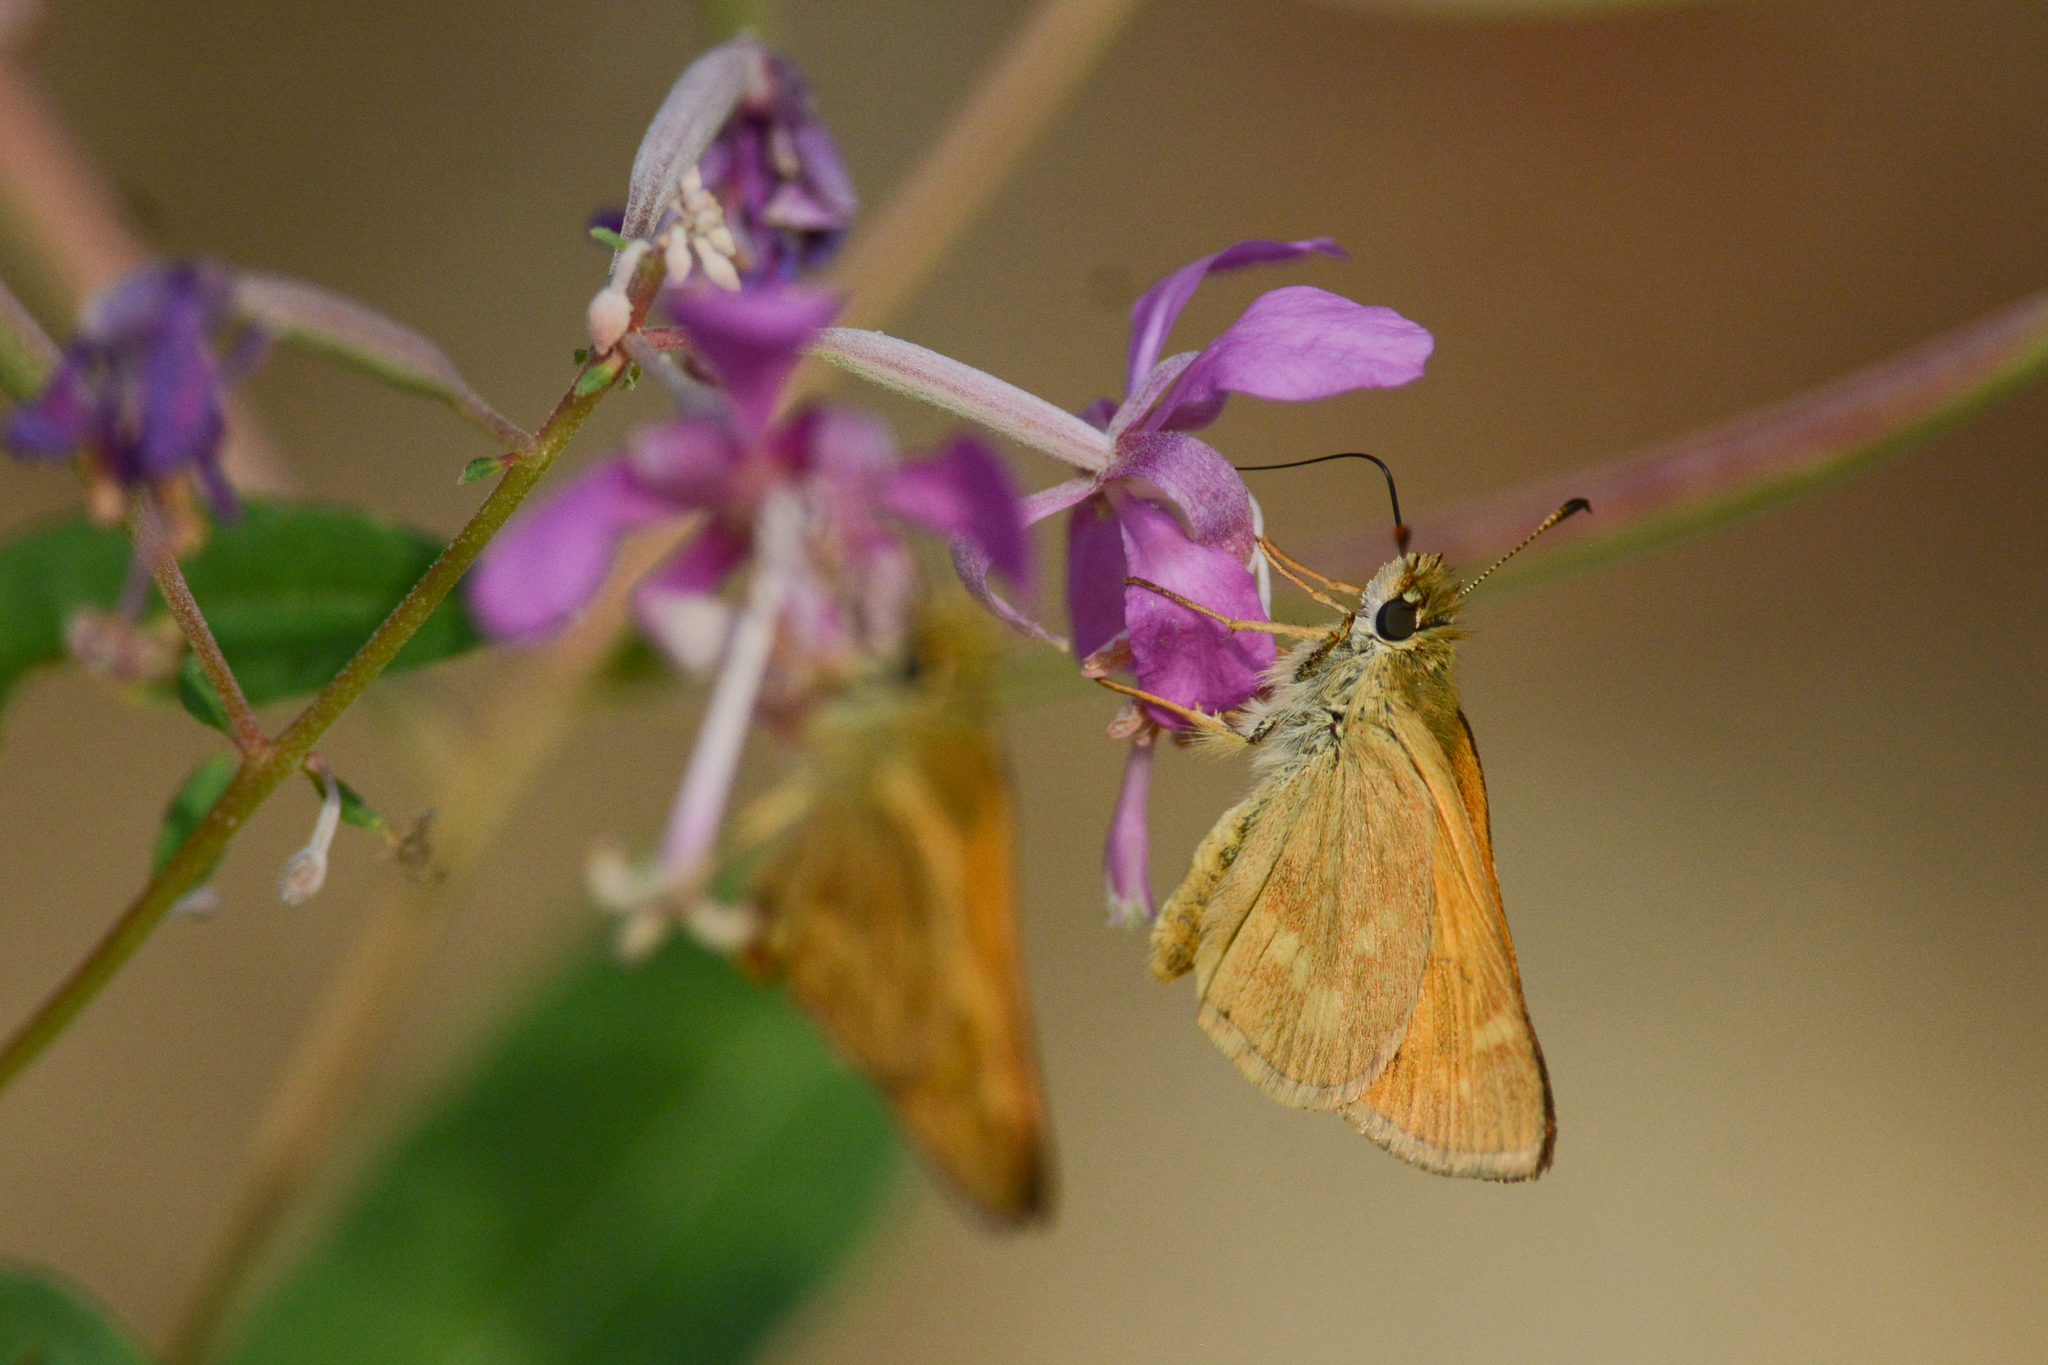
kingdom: Animalia
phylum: Arthropoda
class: Insecta
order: Lepidoptera
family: Hesperiidae
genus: Ochlodes
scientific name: Ochlodes sylvanoides
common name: Woodland skipper
